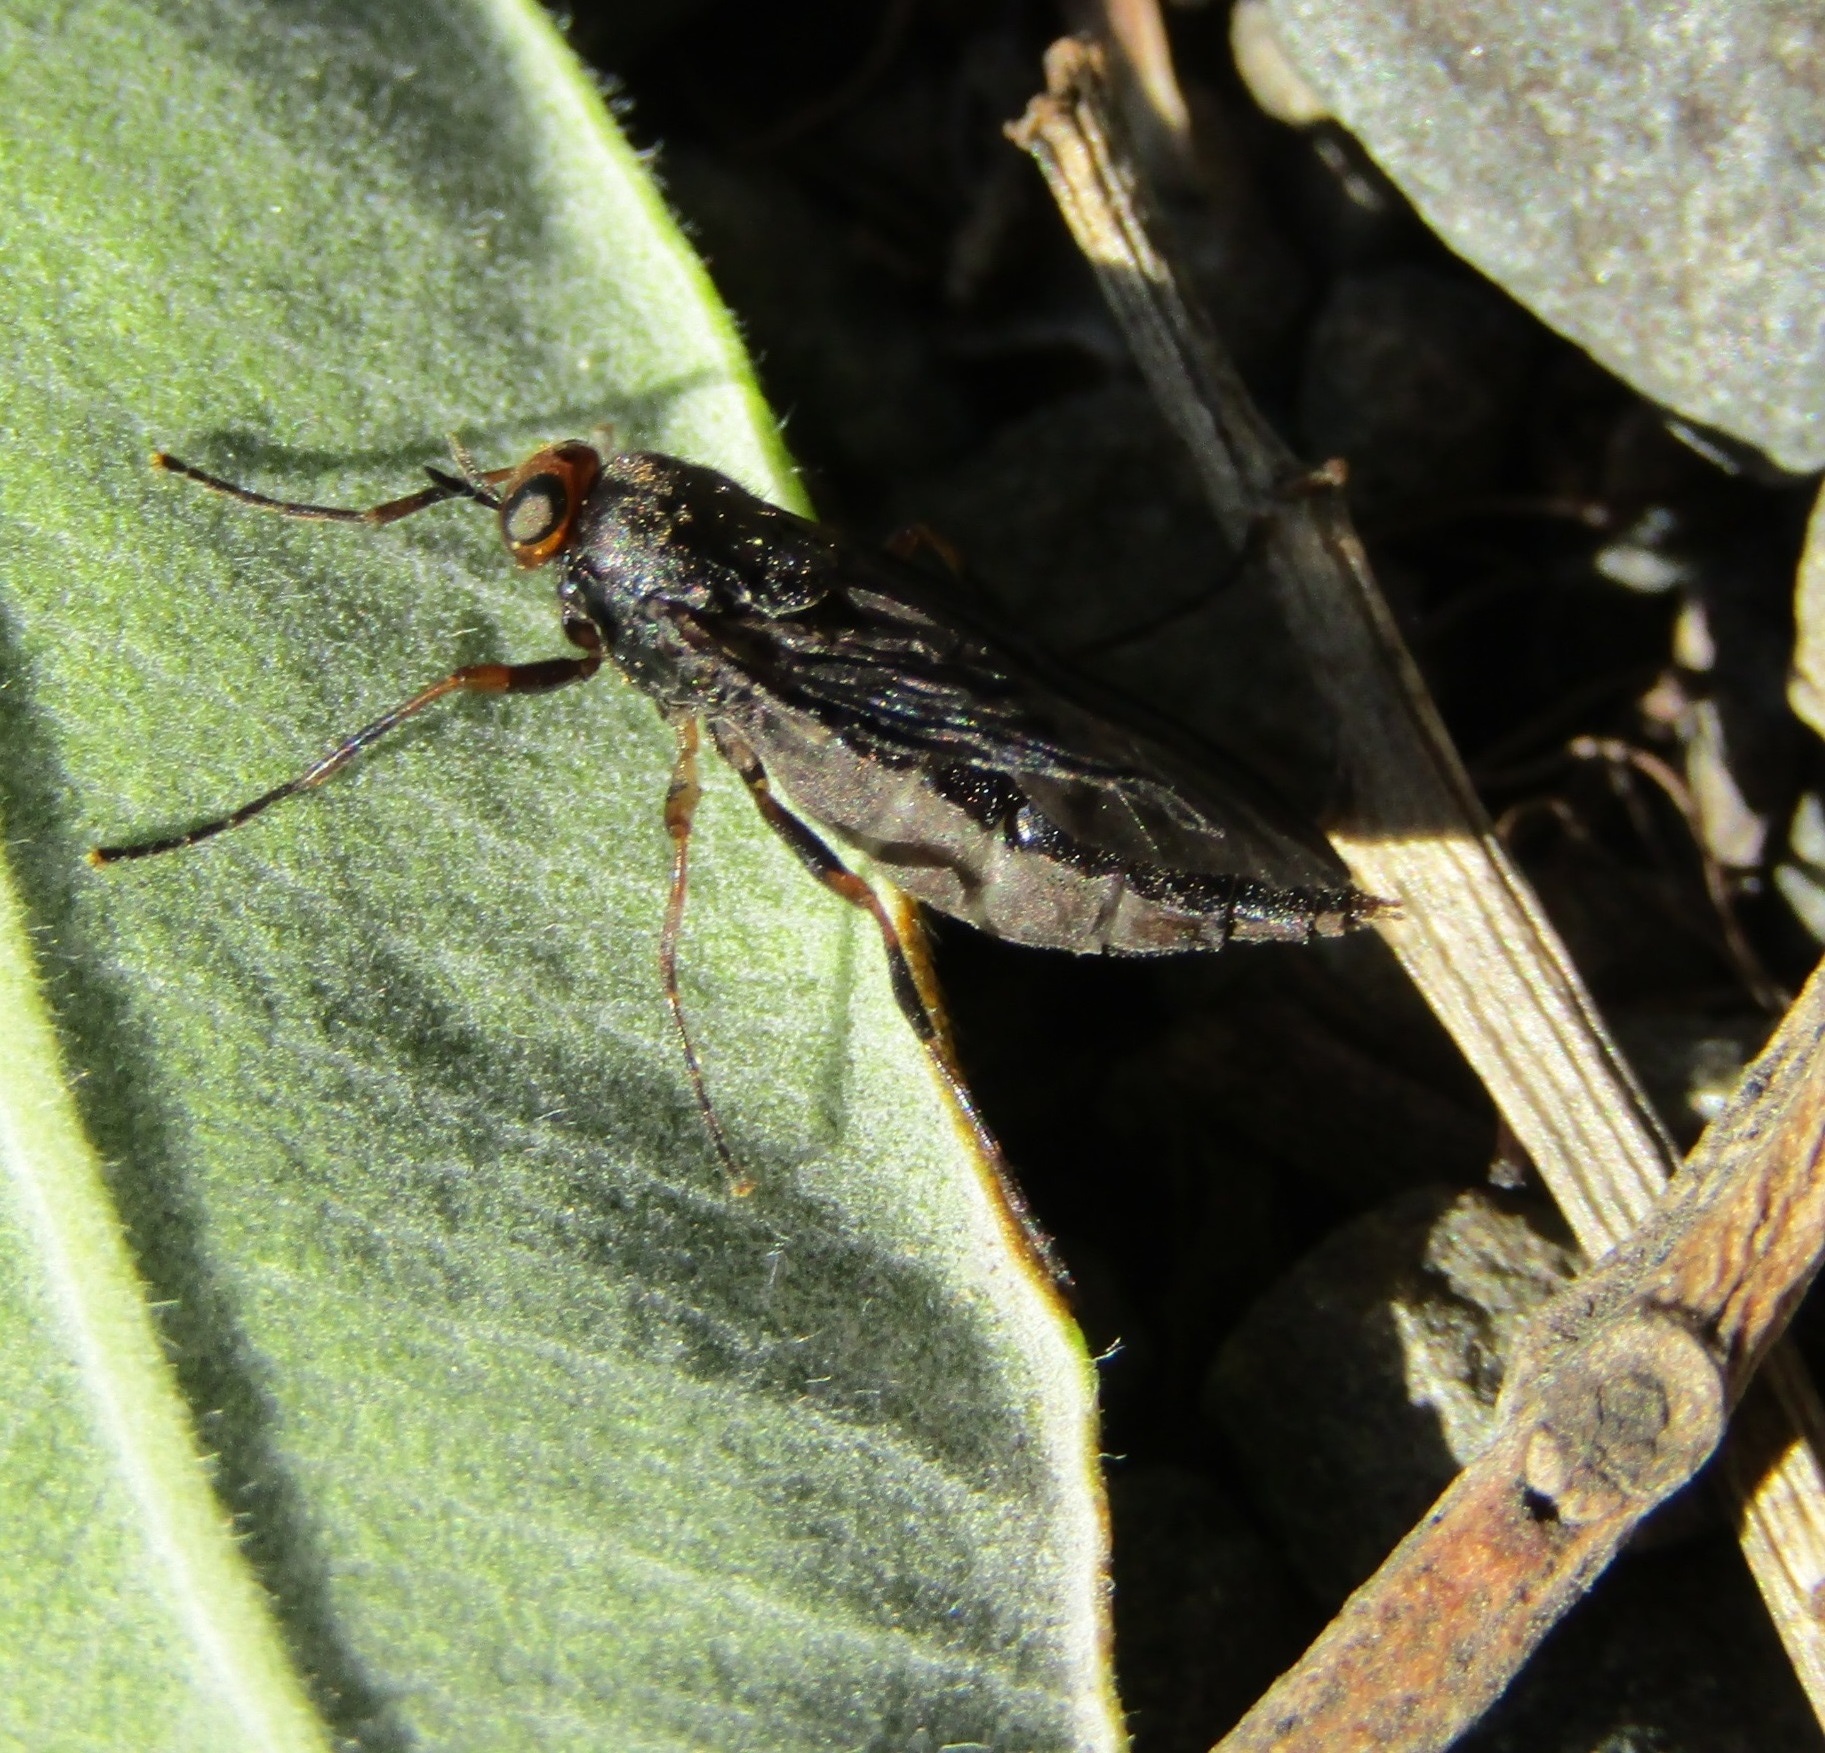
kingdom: Animalia
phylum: Arthropoda
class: Insecta
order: Diptera
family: Stratiomyidae
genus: Inopus
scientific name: Inopus rubriceps
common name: Soldier fly
